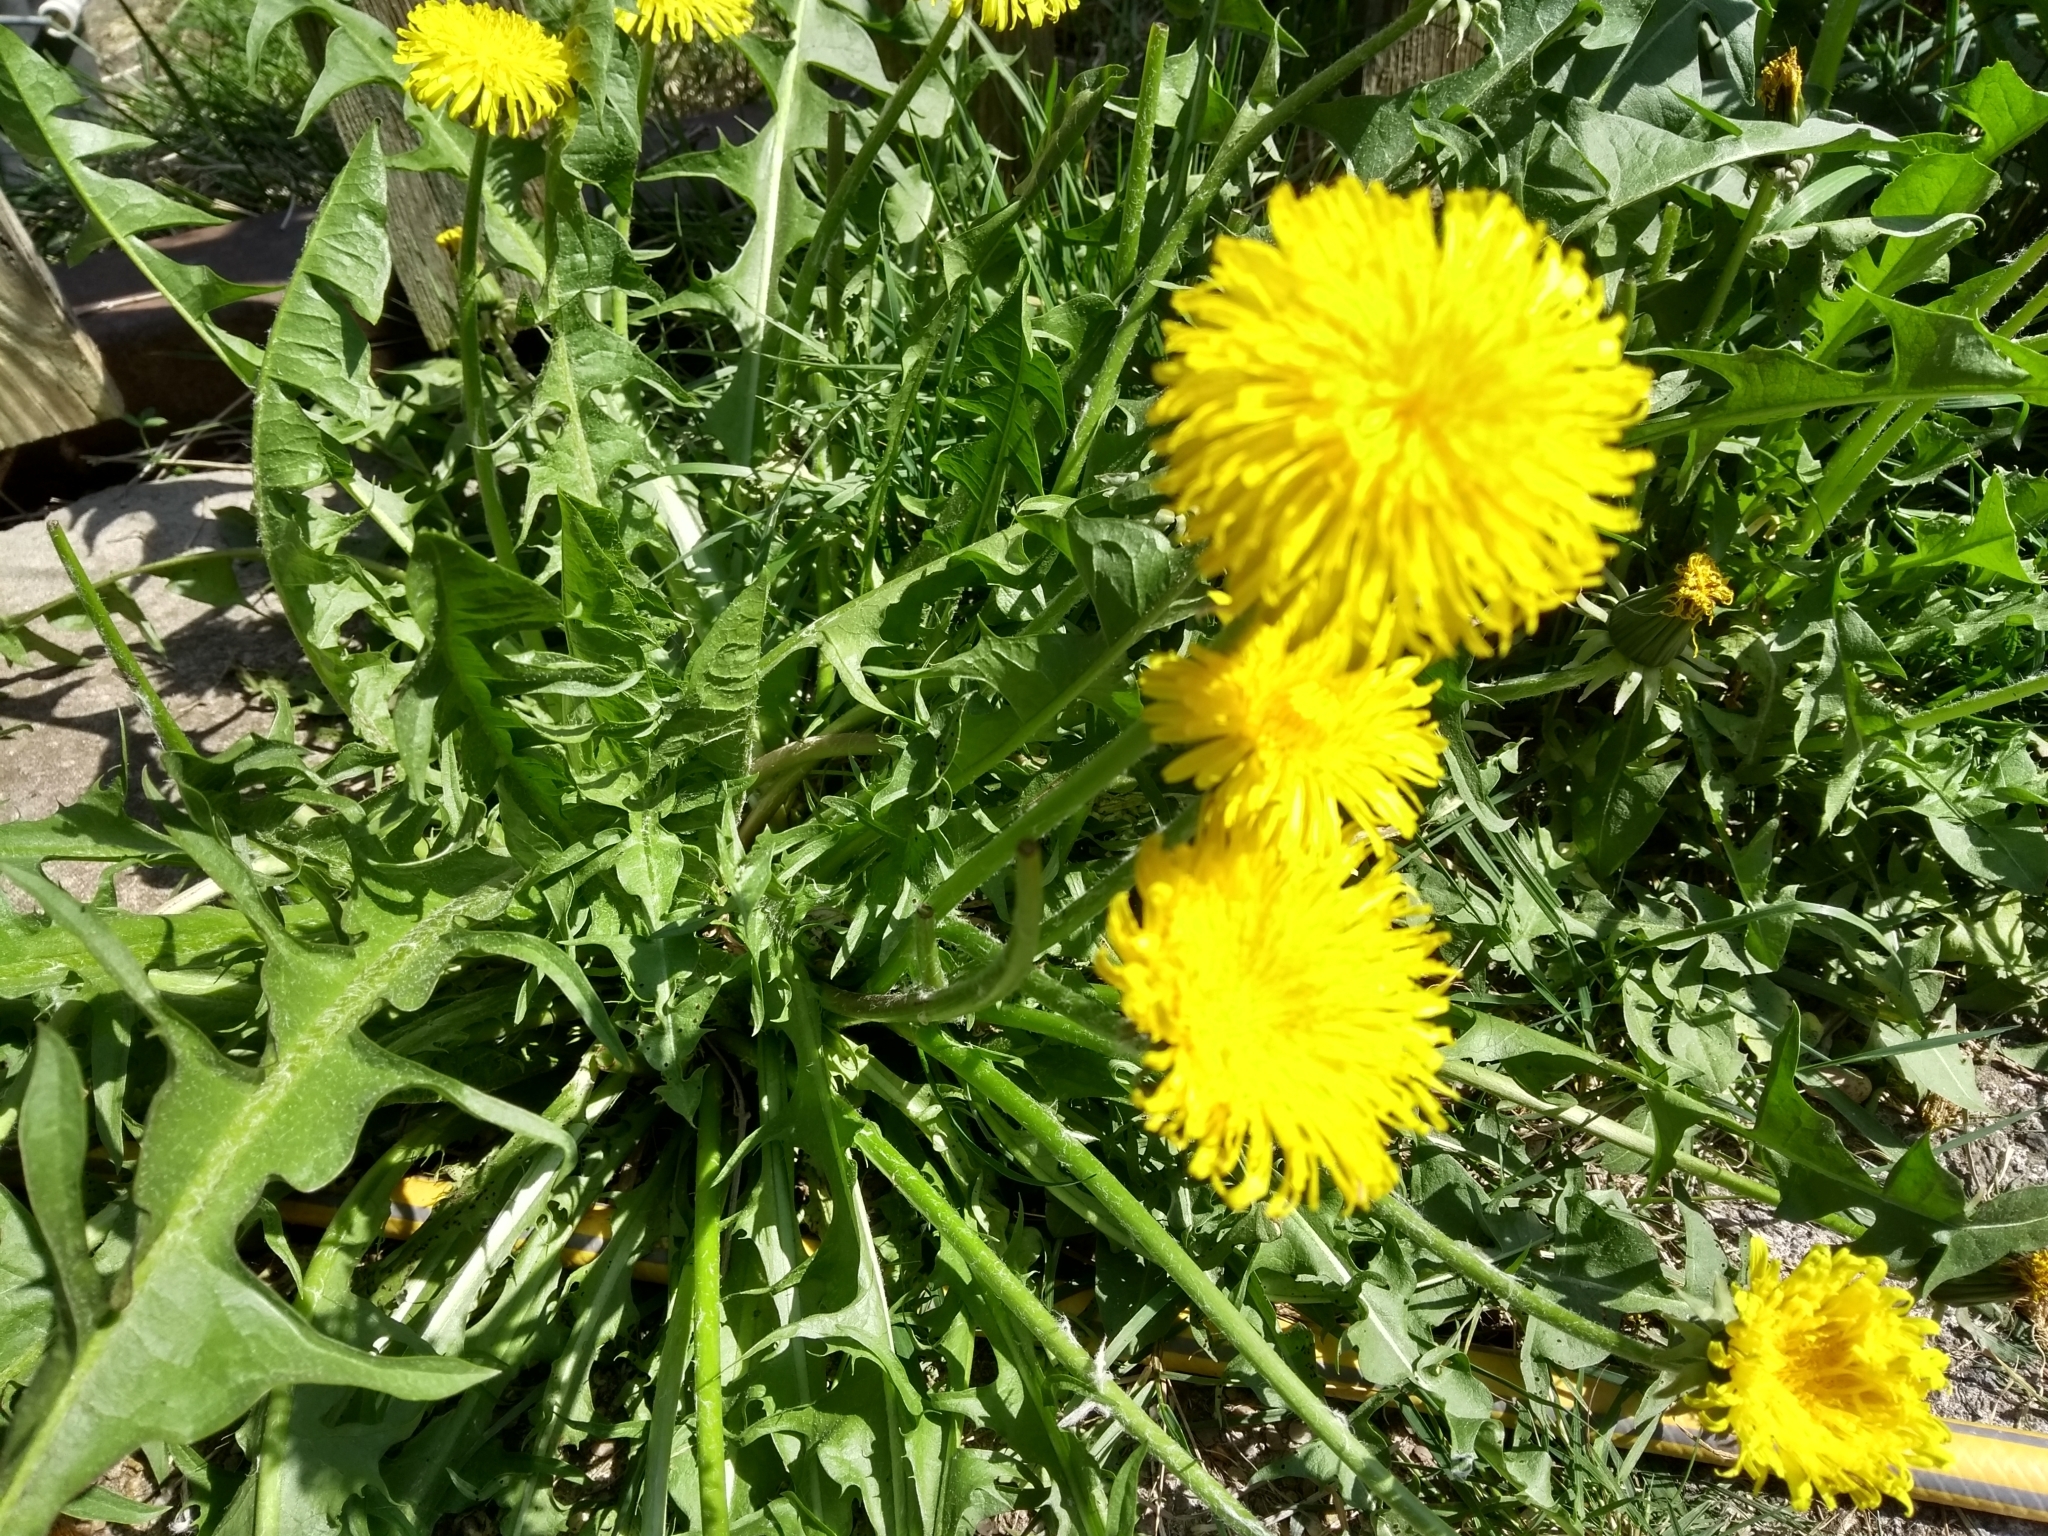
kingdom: Plantae
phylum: Tracheophyta
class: Magnoliopsida
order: Asterales
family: Asteraceae
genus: Taraxacum
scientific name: Taraxacum officinale
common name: Common dandelion
